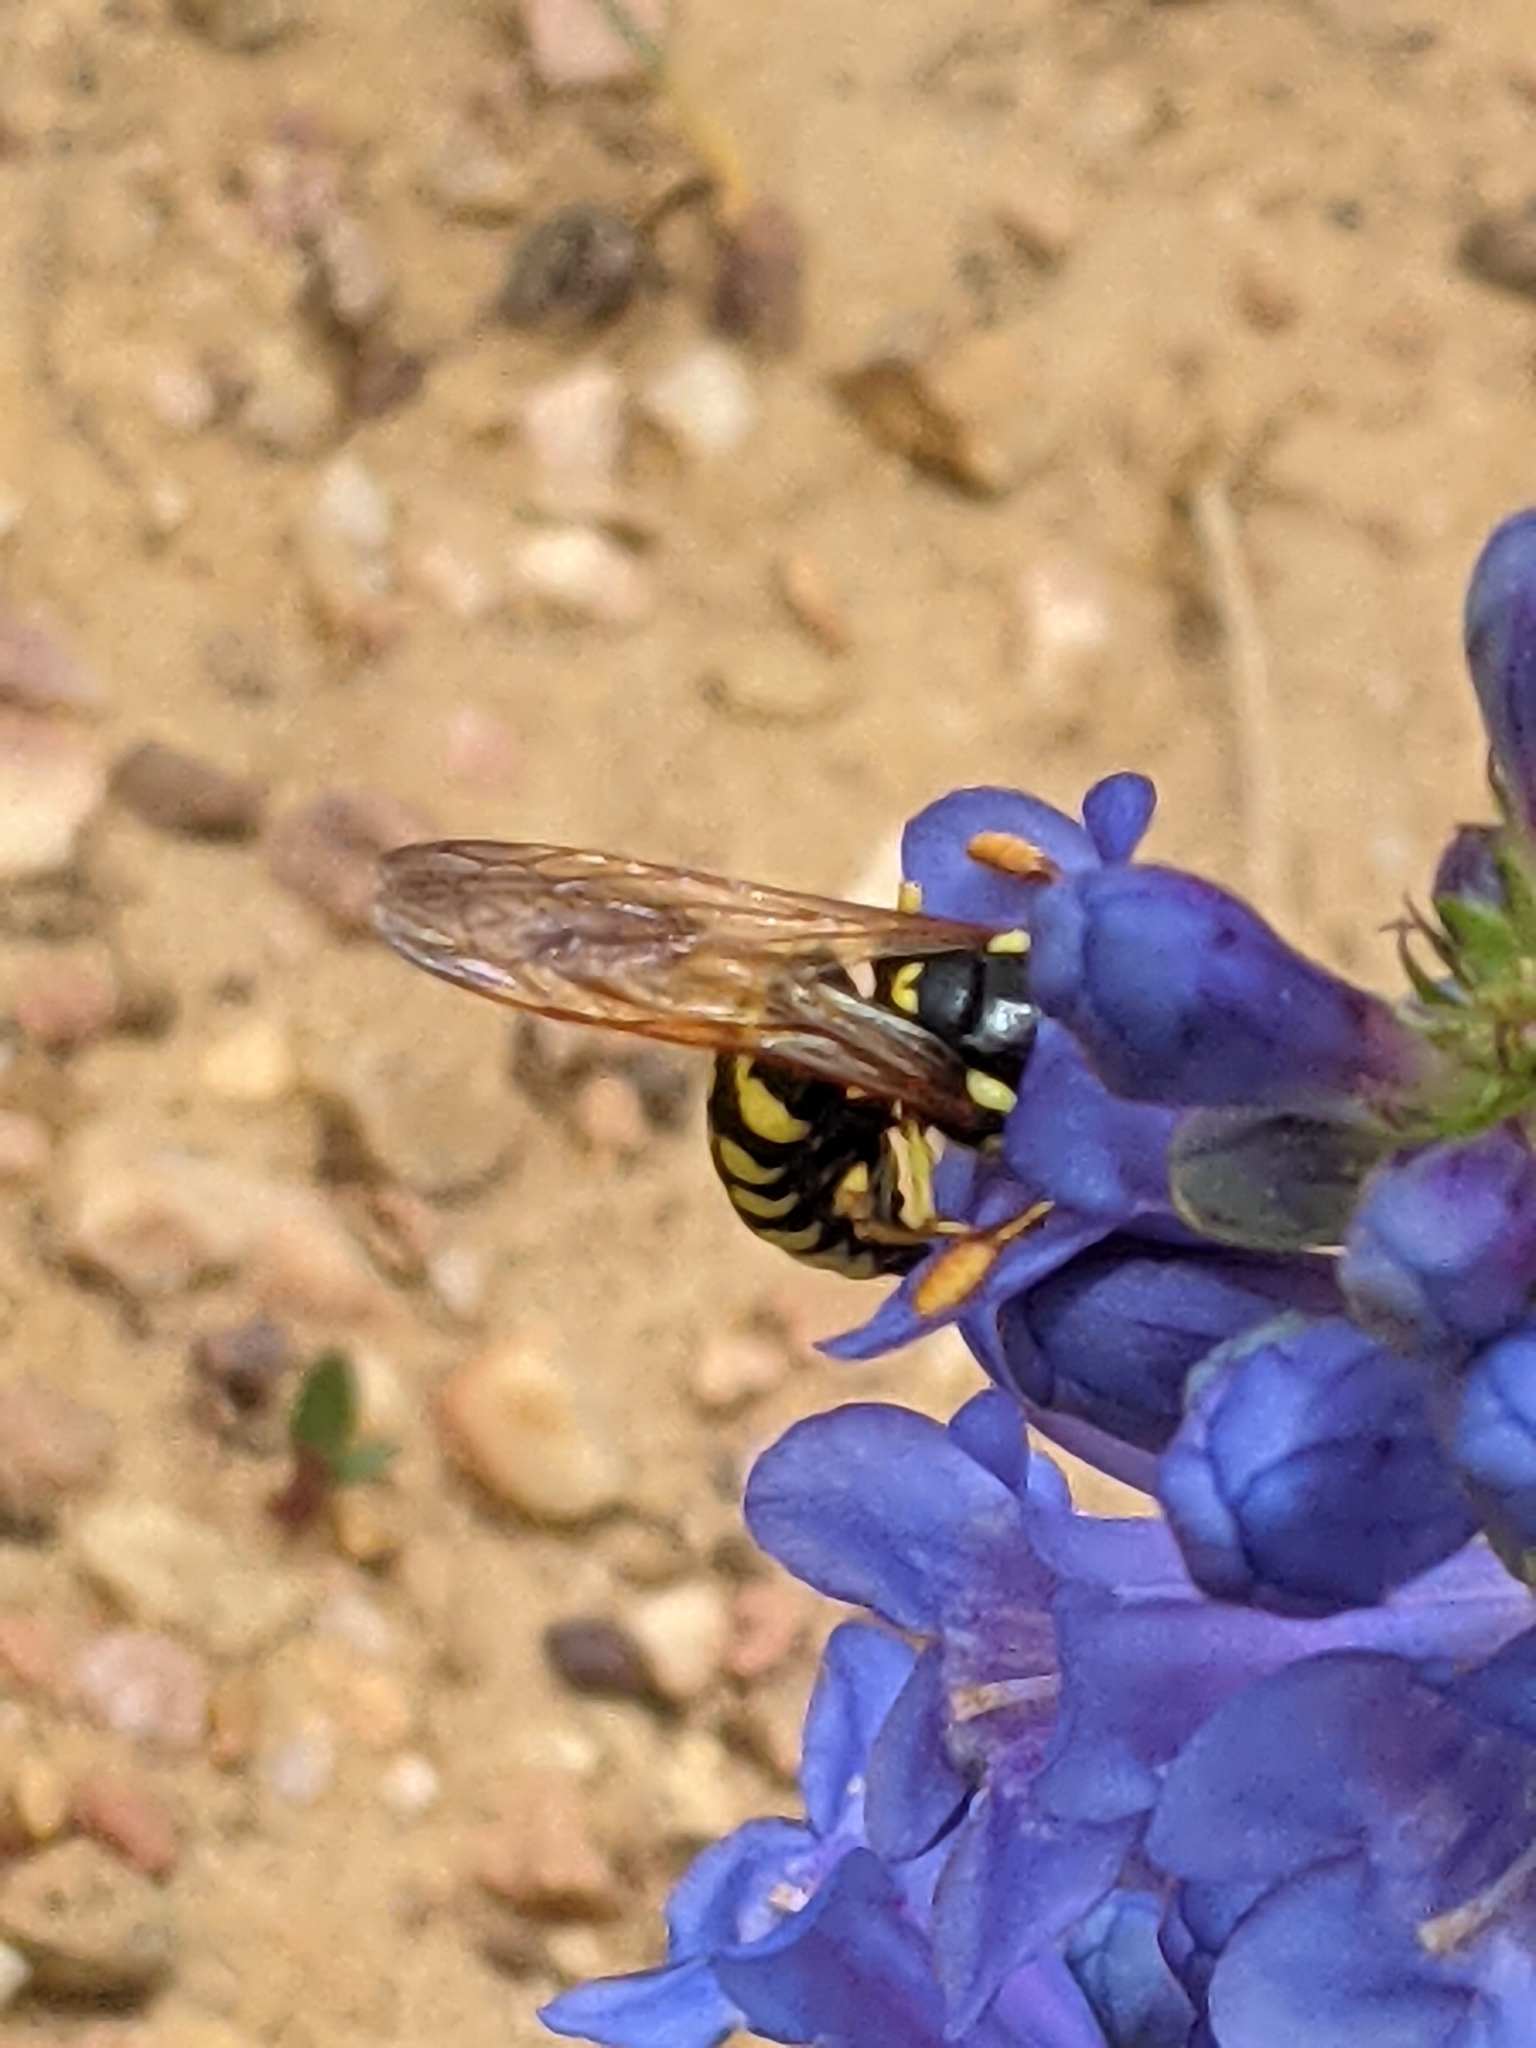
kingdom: Animalia
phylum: Arthropoda
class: Insecta
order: Hymenoptera
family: Masaridae
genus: Pseudomasaris
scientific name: Pseudomasaris vespoides
